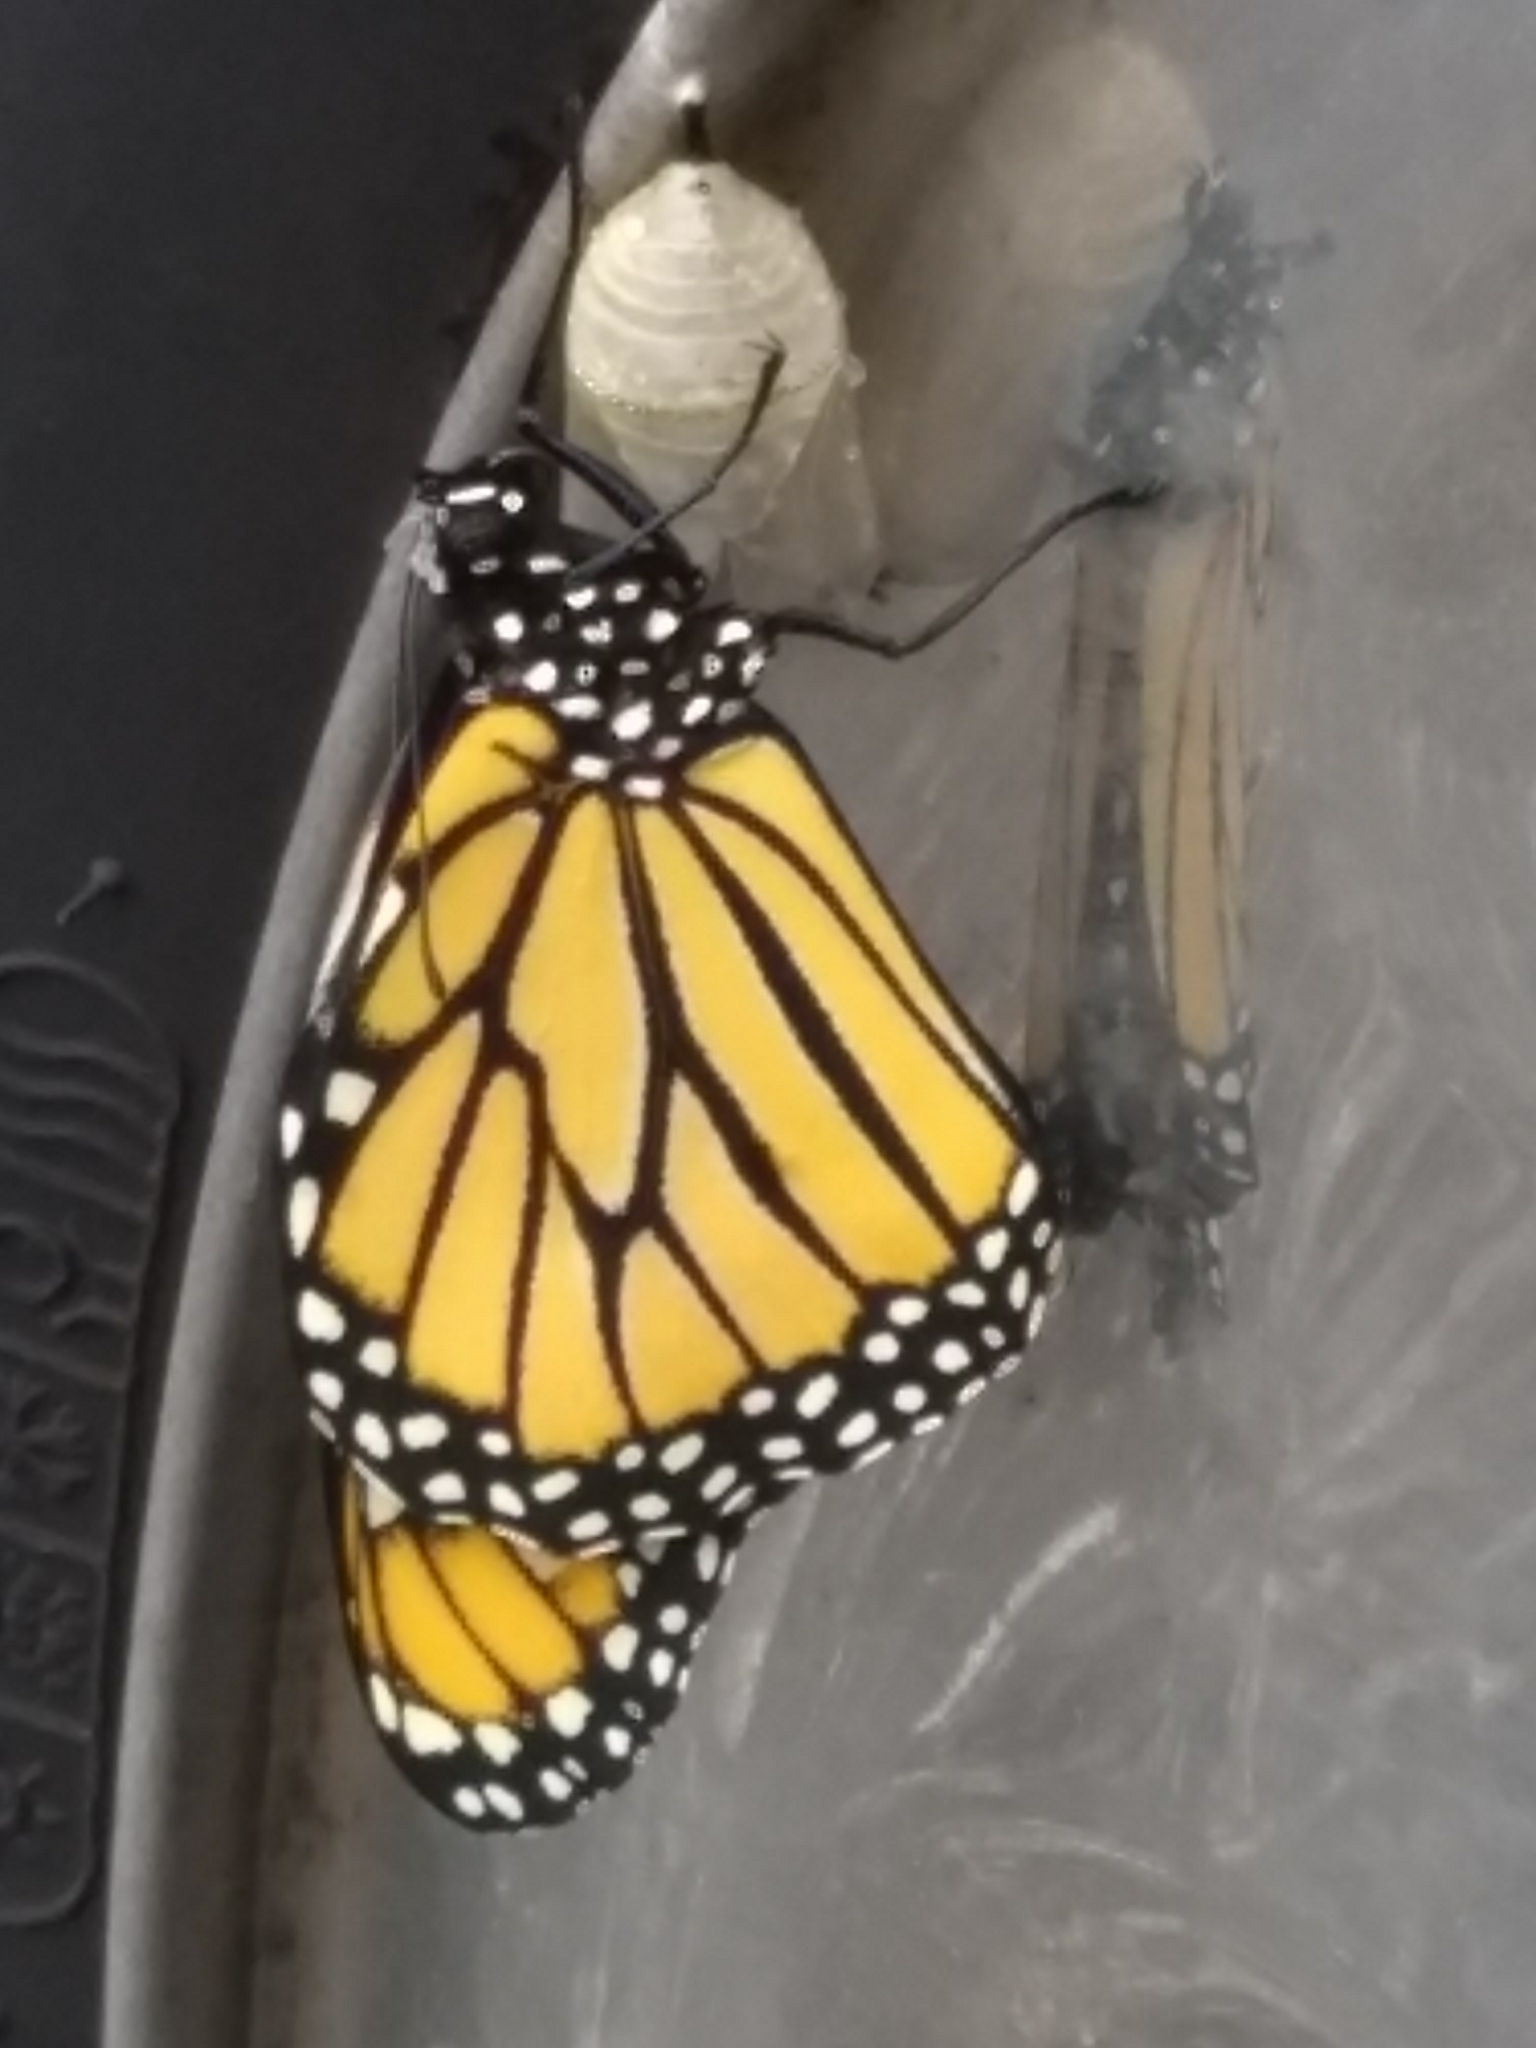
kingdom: Animalia
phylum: Arthropoda
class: Insecta
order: Lepidoptera
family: Nymphalidae
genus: Danaus
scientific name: Danaus plexippus
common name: Monarch
